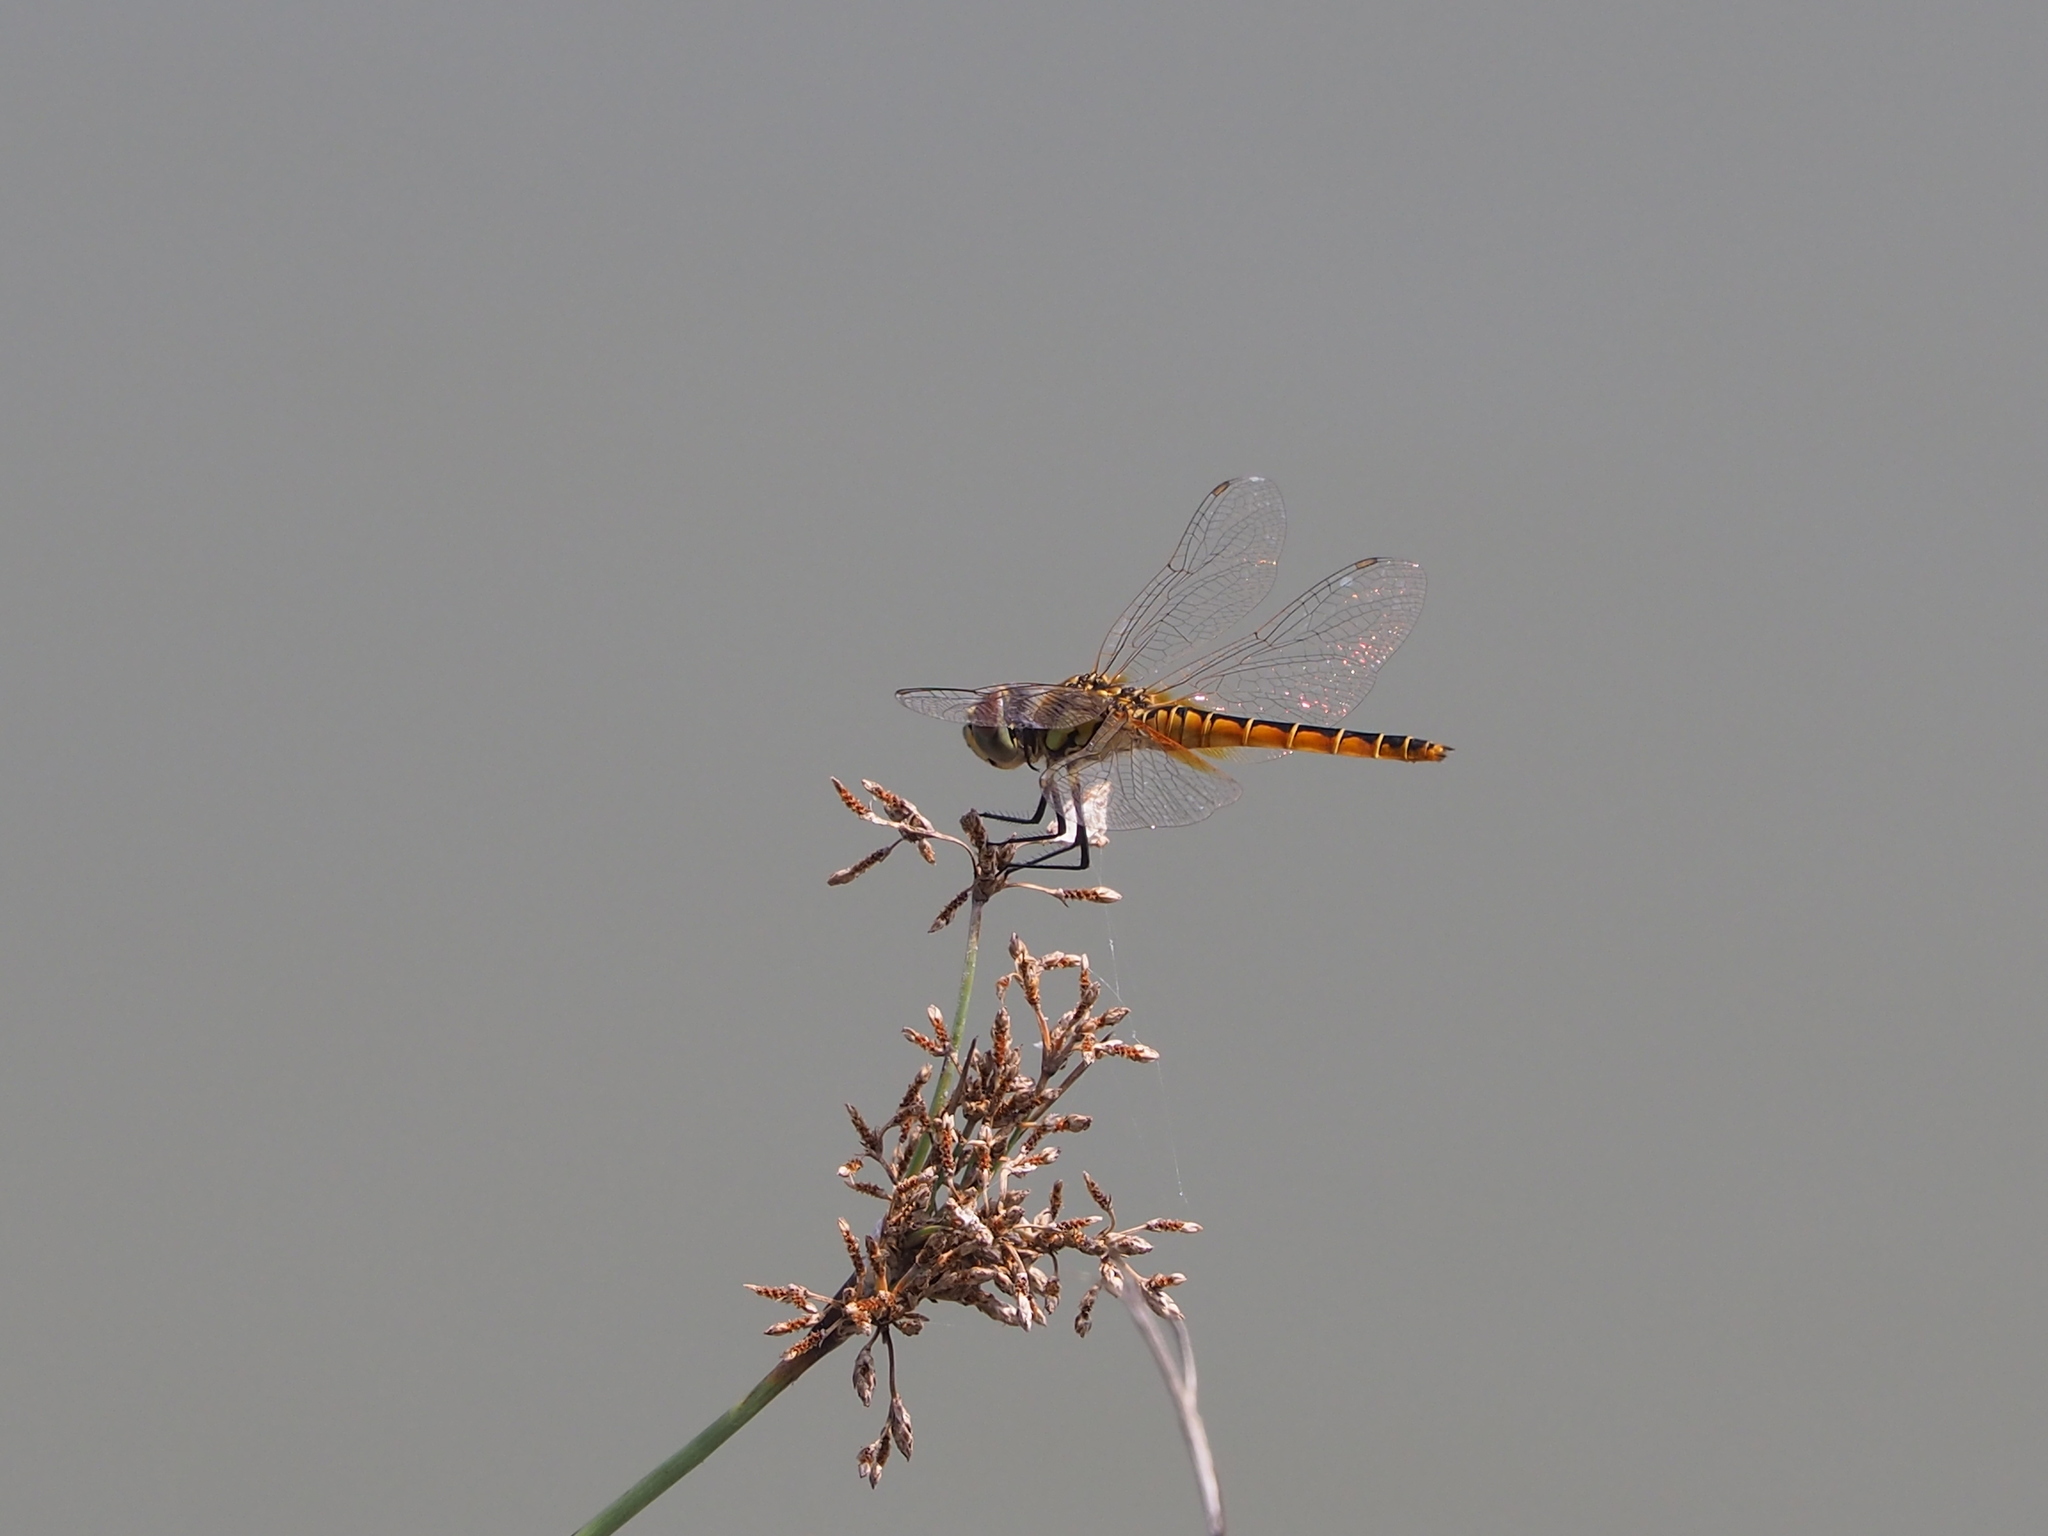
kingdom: Animalia
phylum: Arthropoda
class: Insecta
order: Odonata
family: Libellulidae
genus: Macrodiplax
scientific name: Macrodiplax cora
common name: Coastal glider
